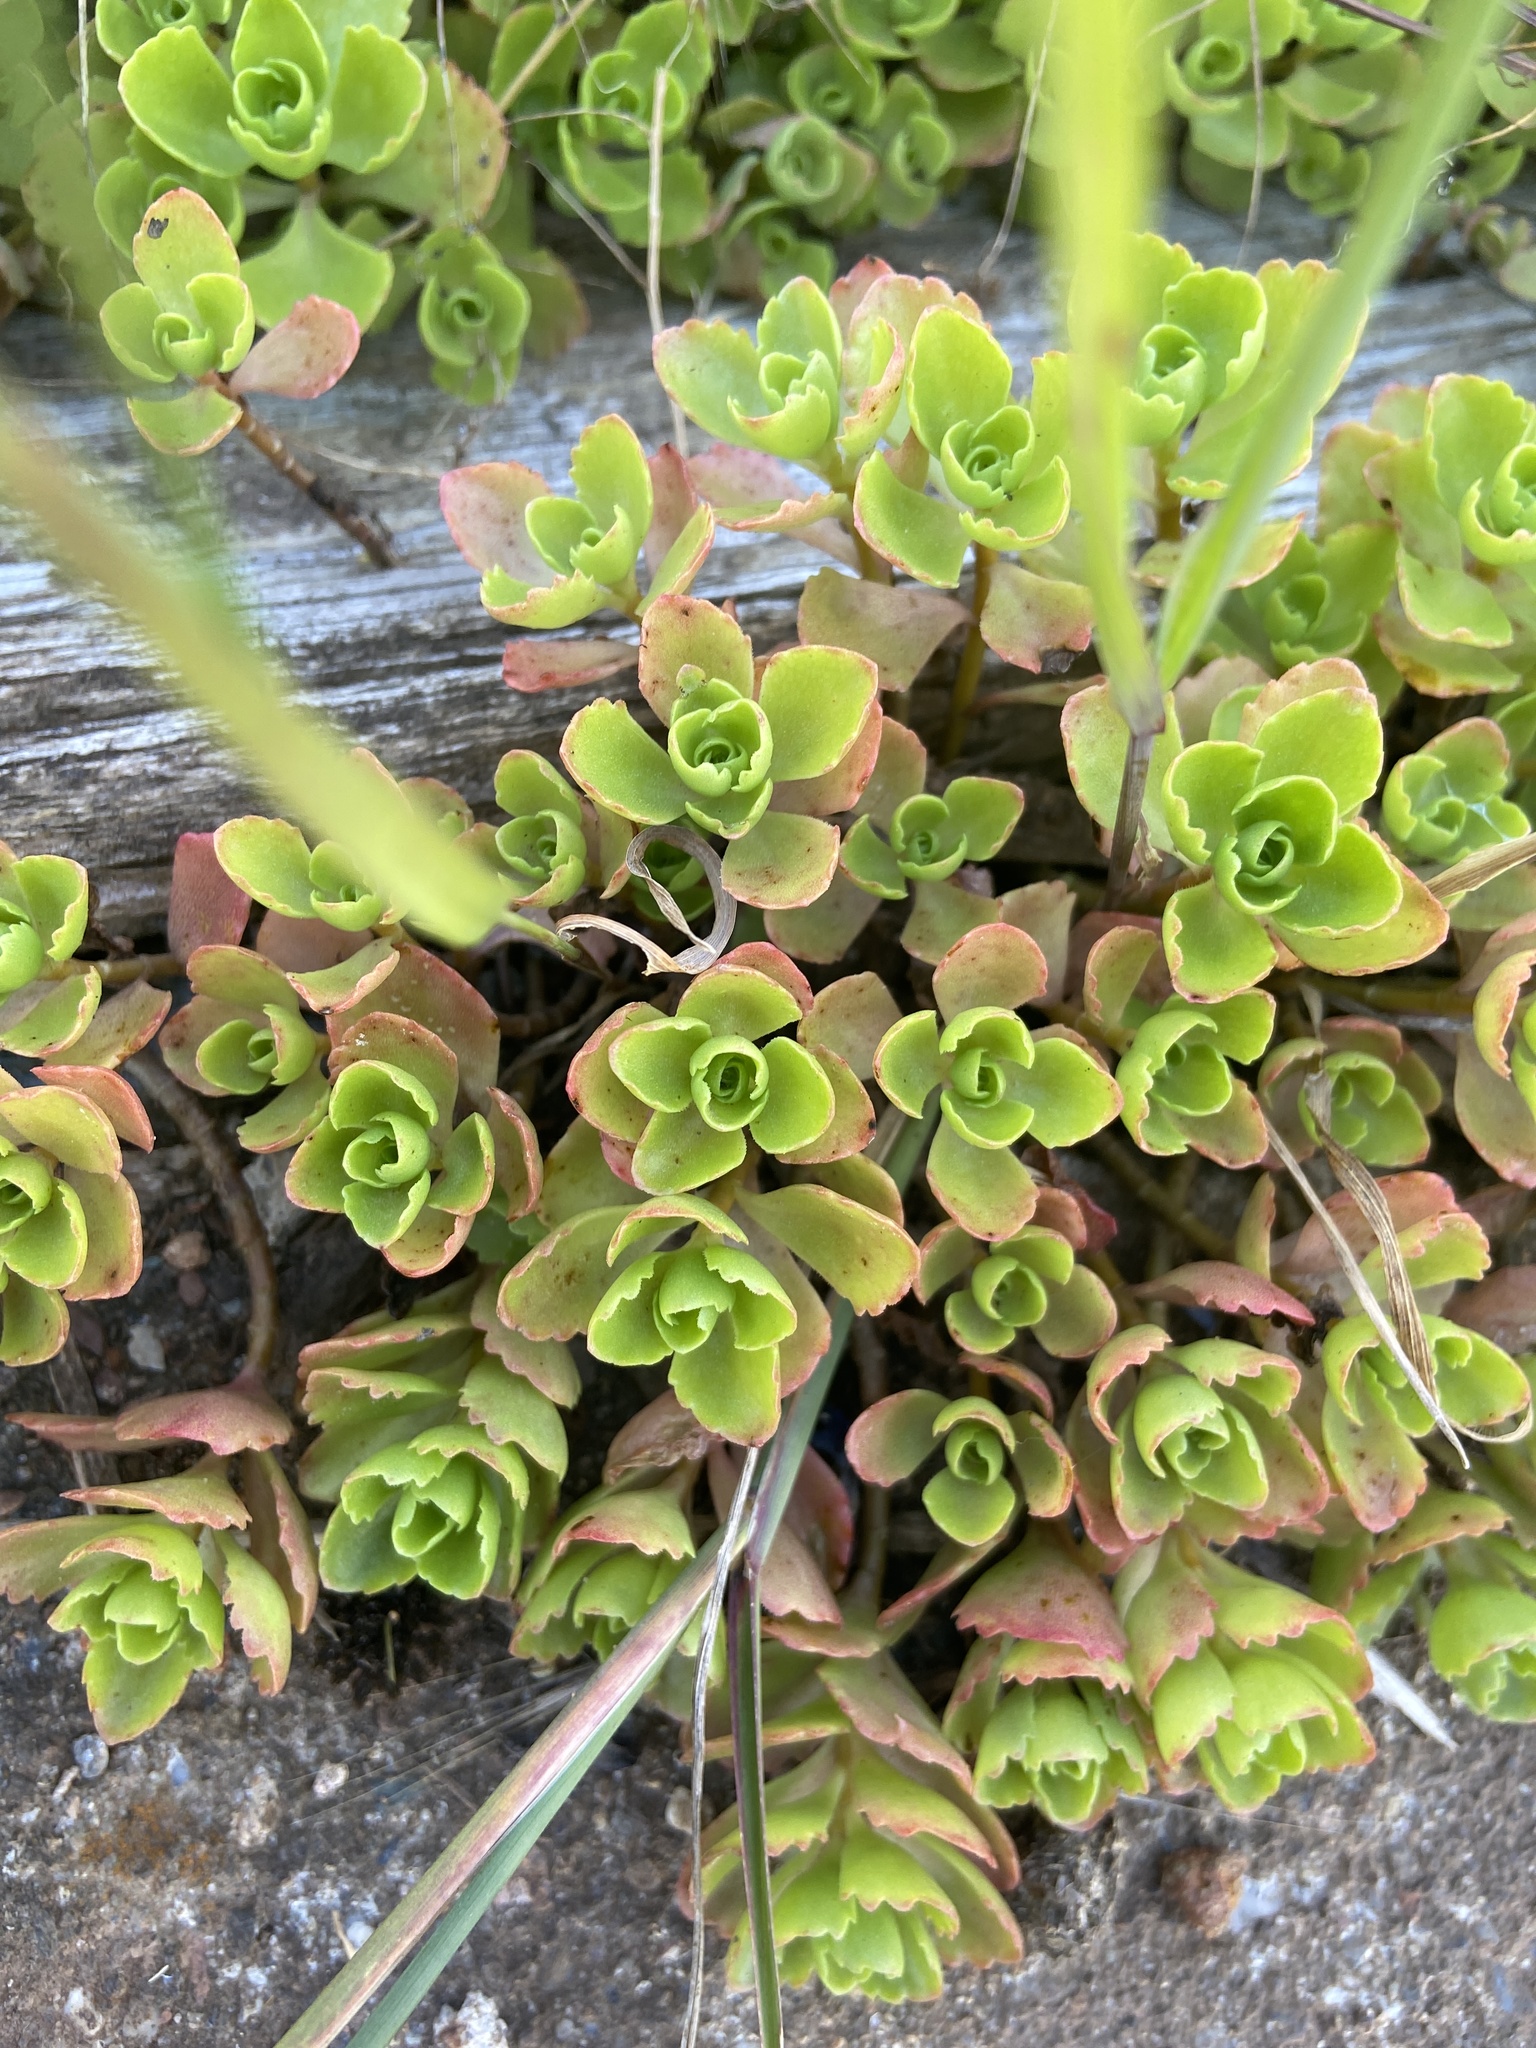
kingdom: Plantae
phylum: Tracheophyta
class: Magnoliopsida
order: Saxifragales
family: Crassulaceae
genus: Phedimus
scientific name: Phedimus spurius
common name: Caucasian stonecrop
